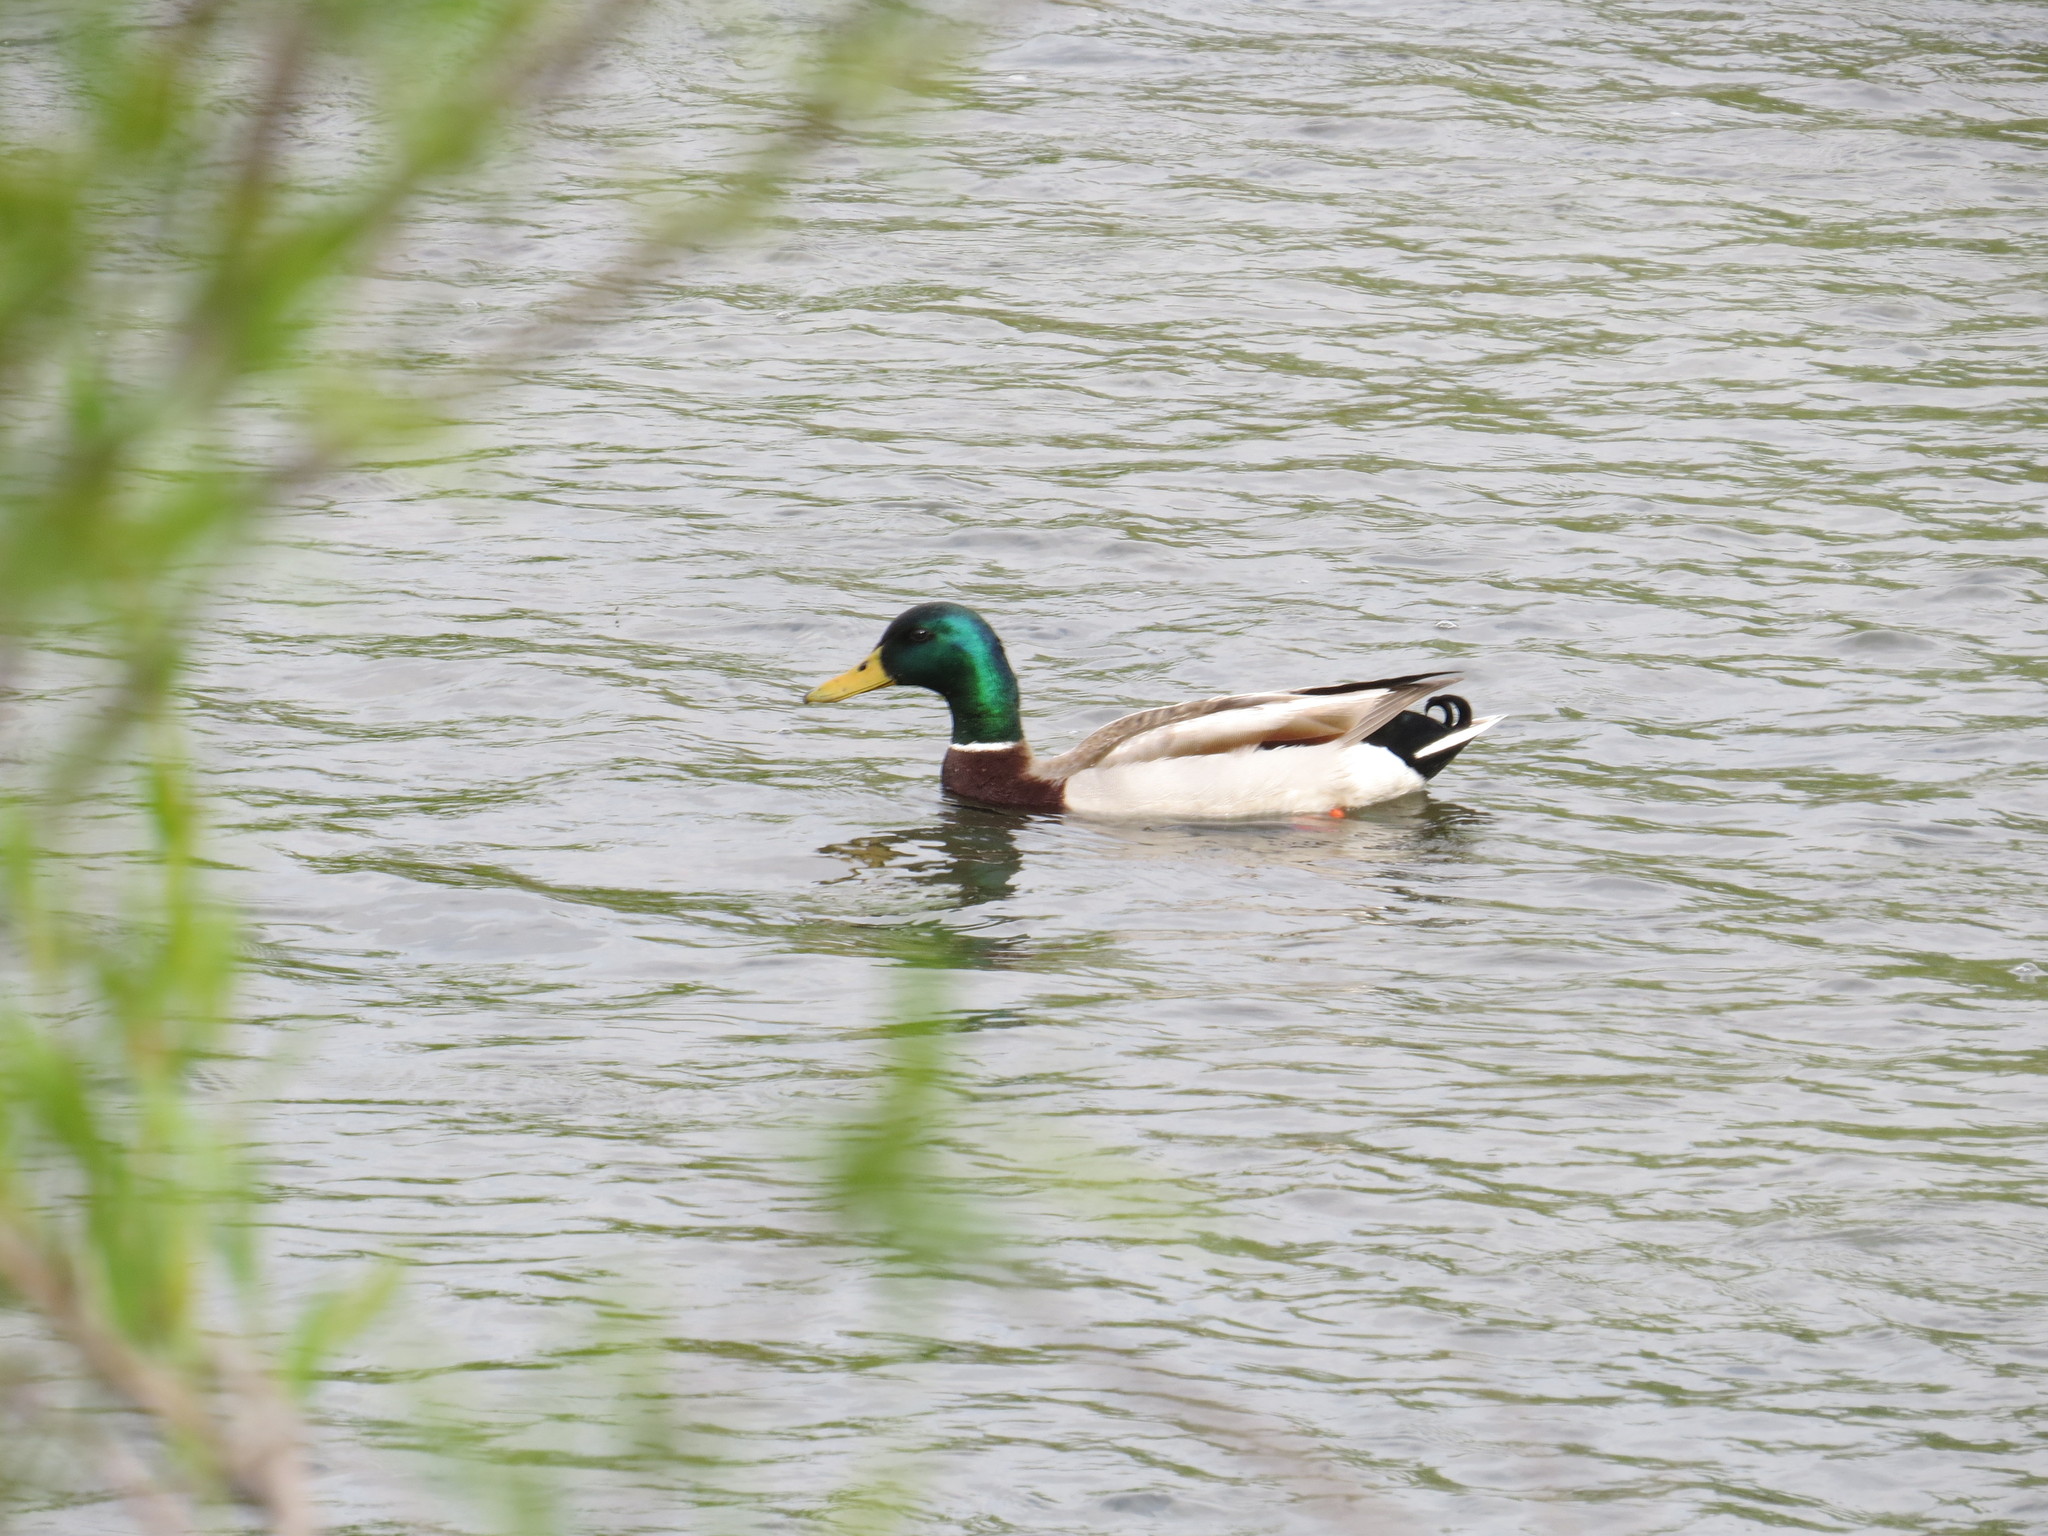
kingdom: Animalia
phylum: Chordata
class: Aves
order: Anseriformes
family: Anatidae
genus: Anas
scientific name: Anas platyrhynchos
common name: Mallard
